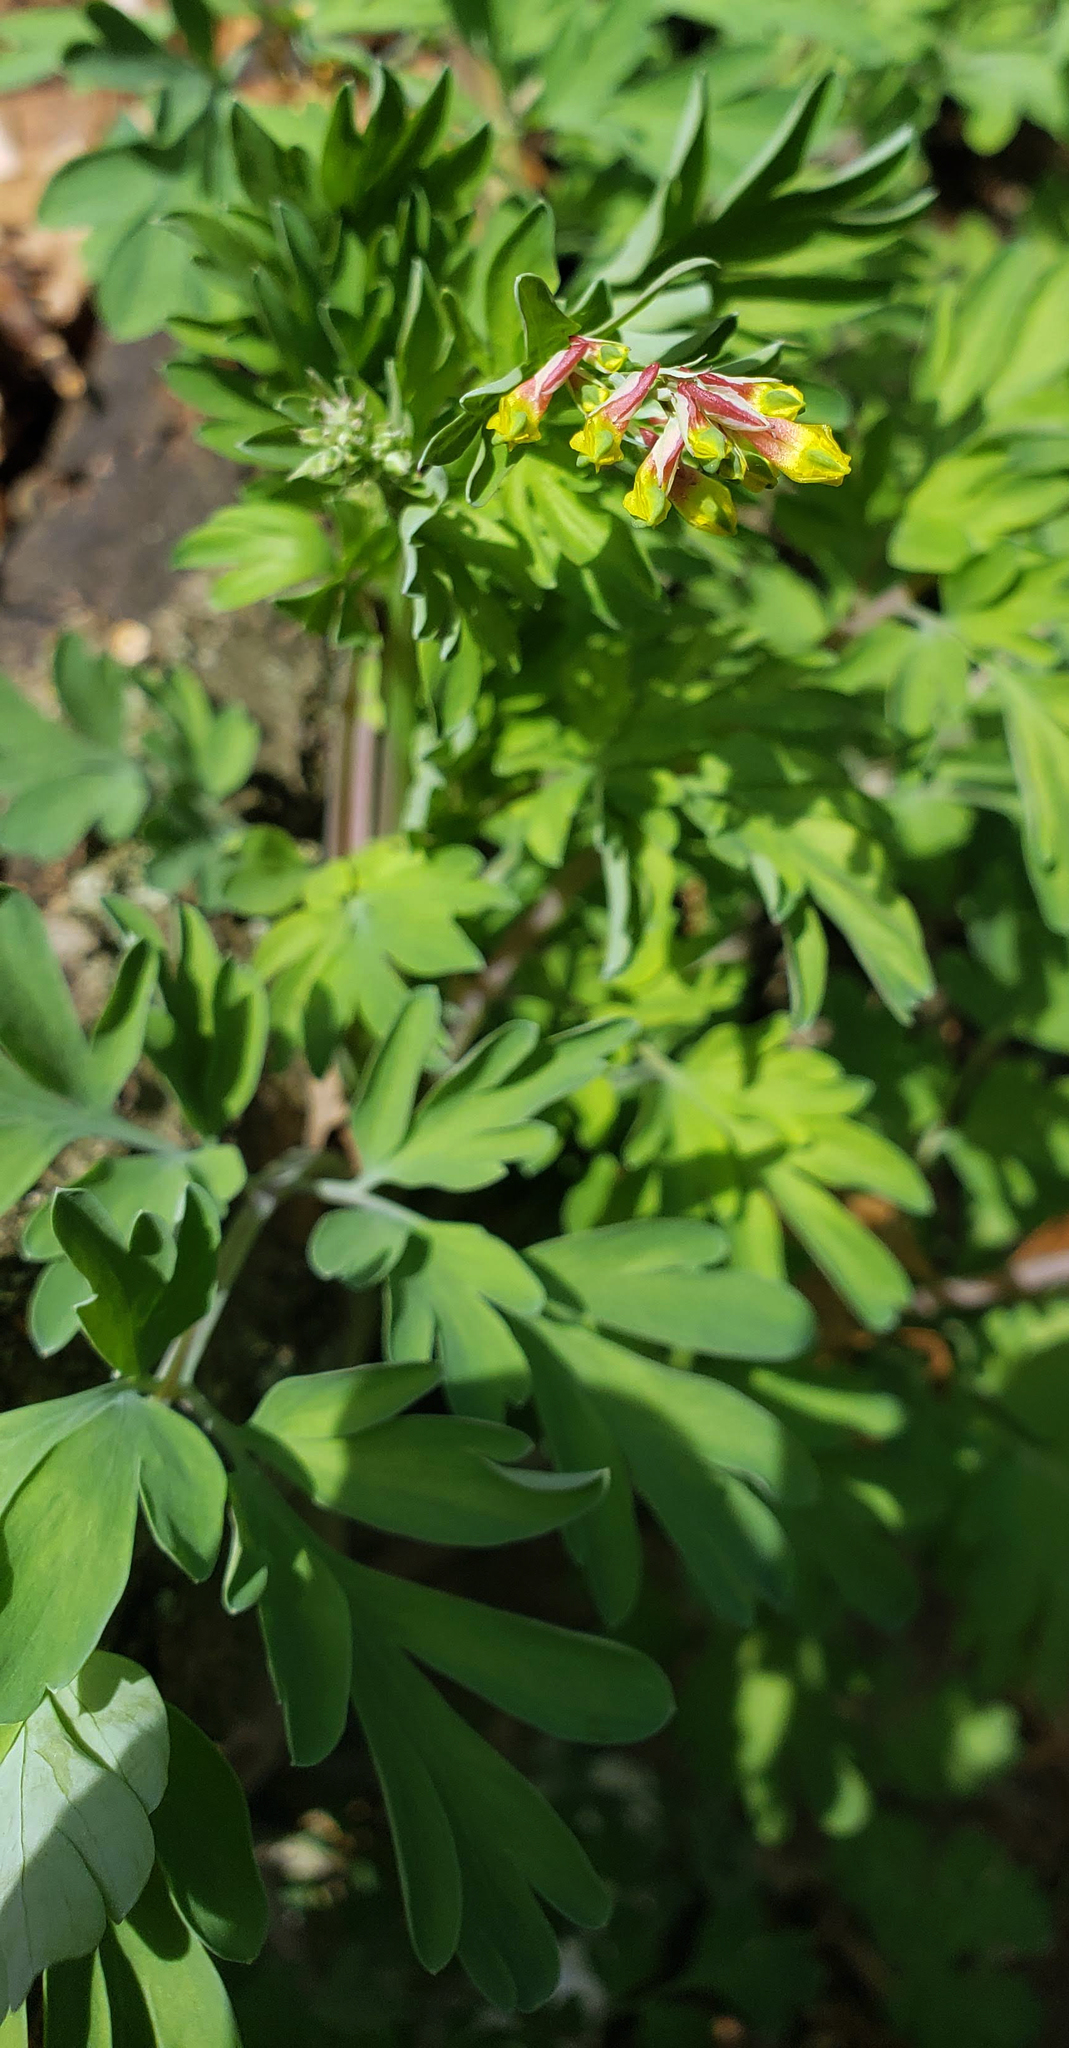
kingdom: Plantae
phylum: Tracheophyta
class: Magnoliopsida
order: Ranunculales
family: Papaveraceae
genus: Capnoides
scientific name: Capnoides sempervirens
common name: Rock harlequin
